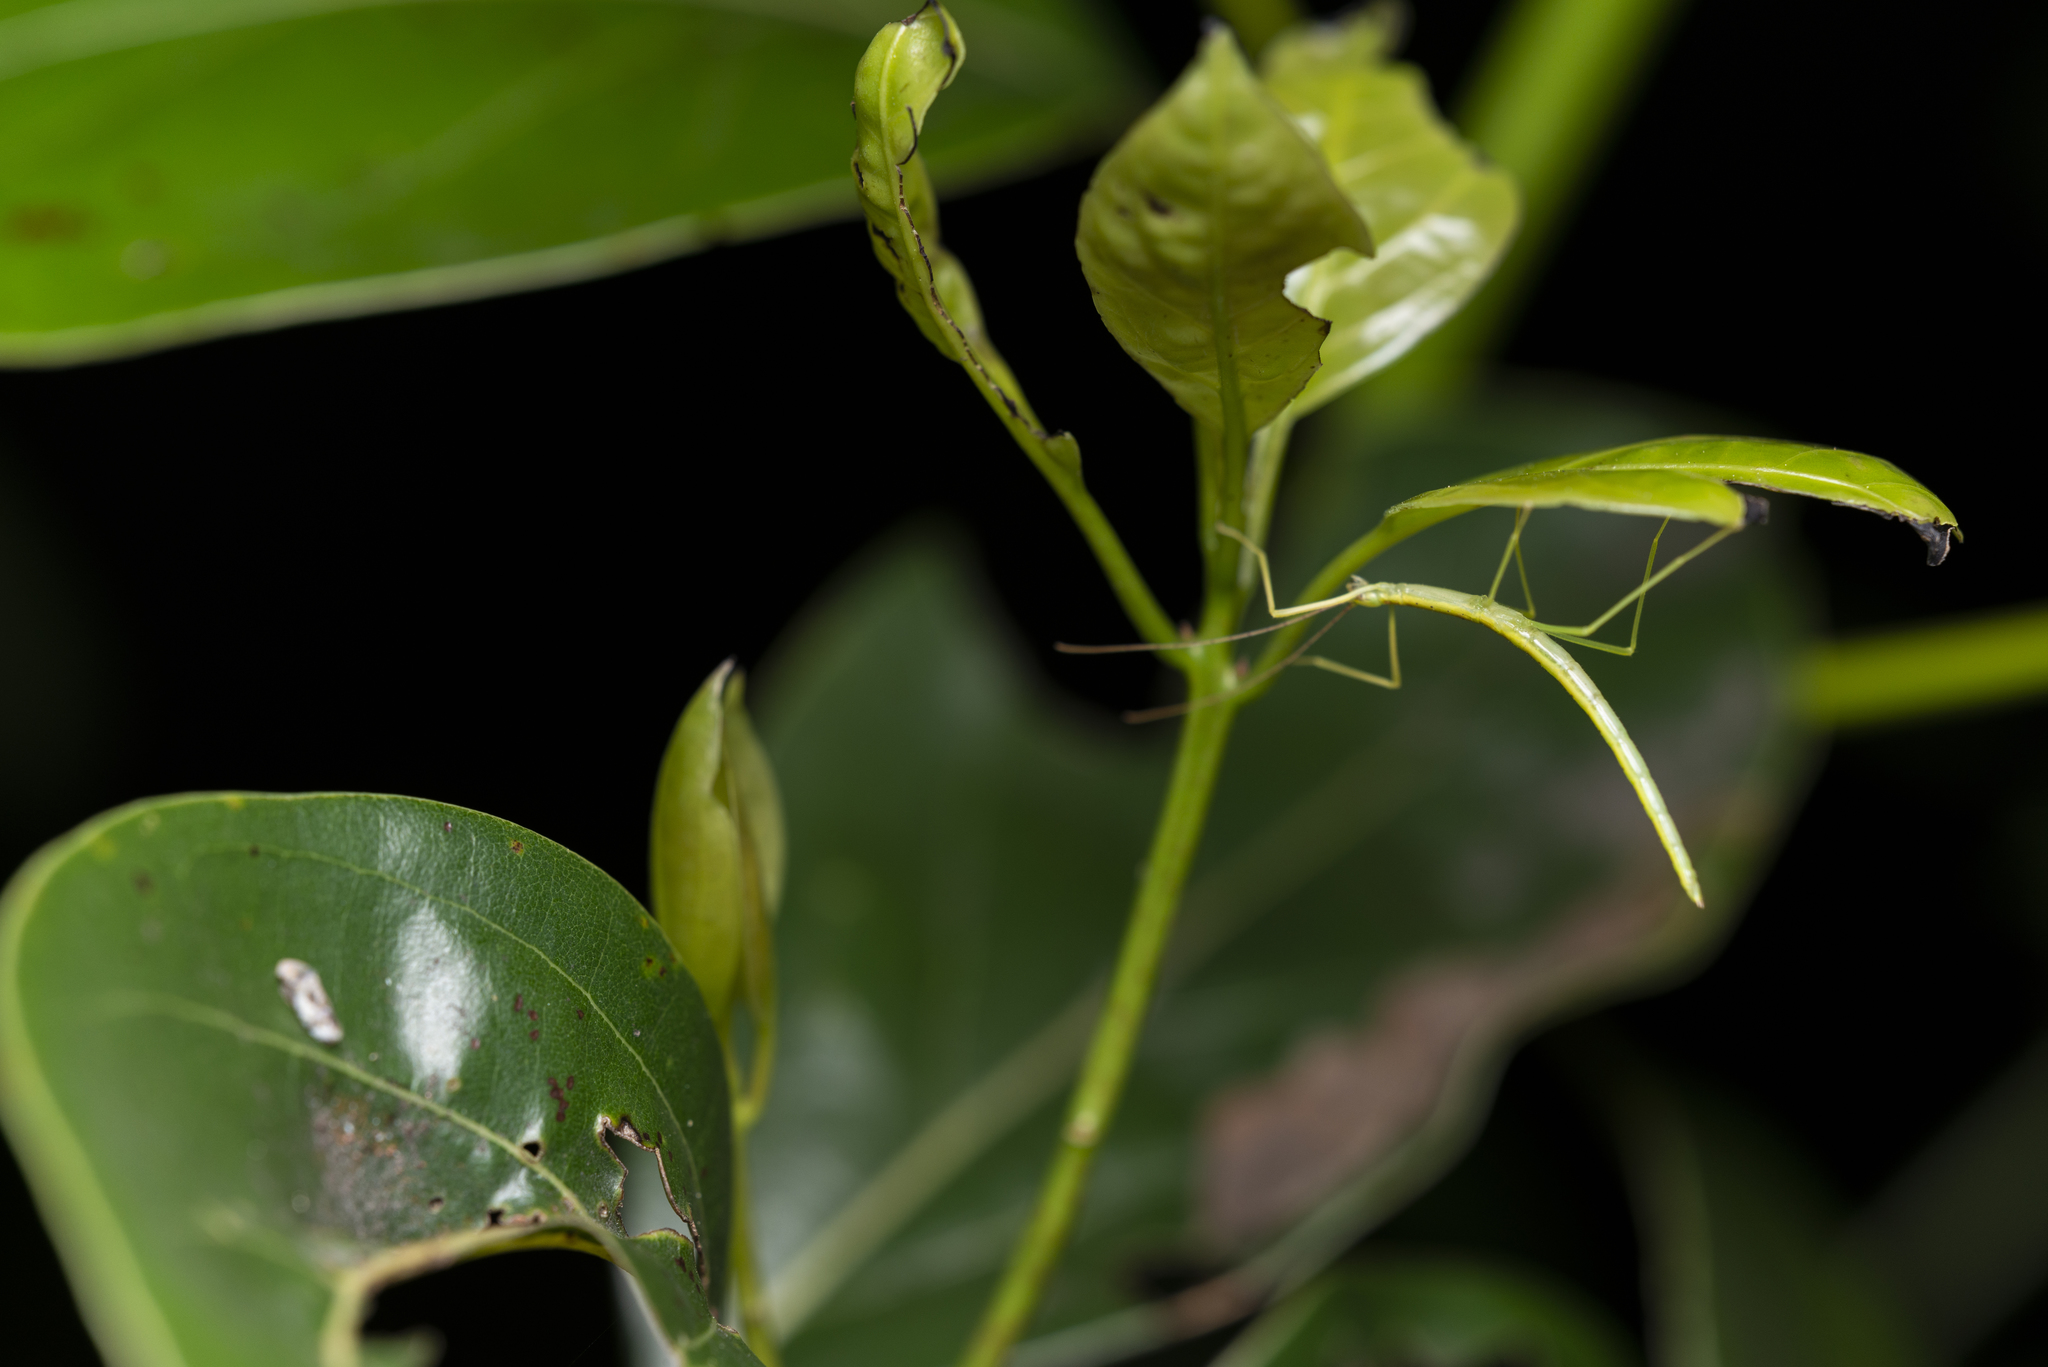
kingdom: Animalia
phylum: Arthropoda
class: Insecta
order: Phasmida
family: Lonchodidae
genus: Huananphasma
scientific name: Huananphasma amicum
